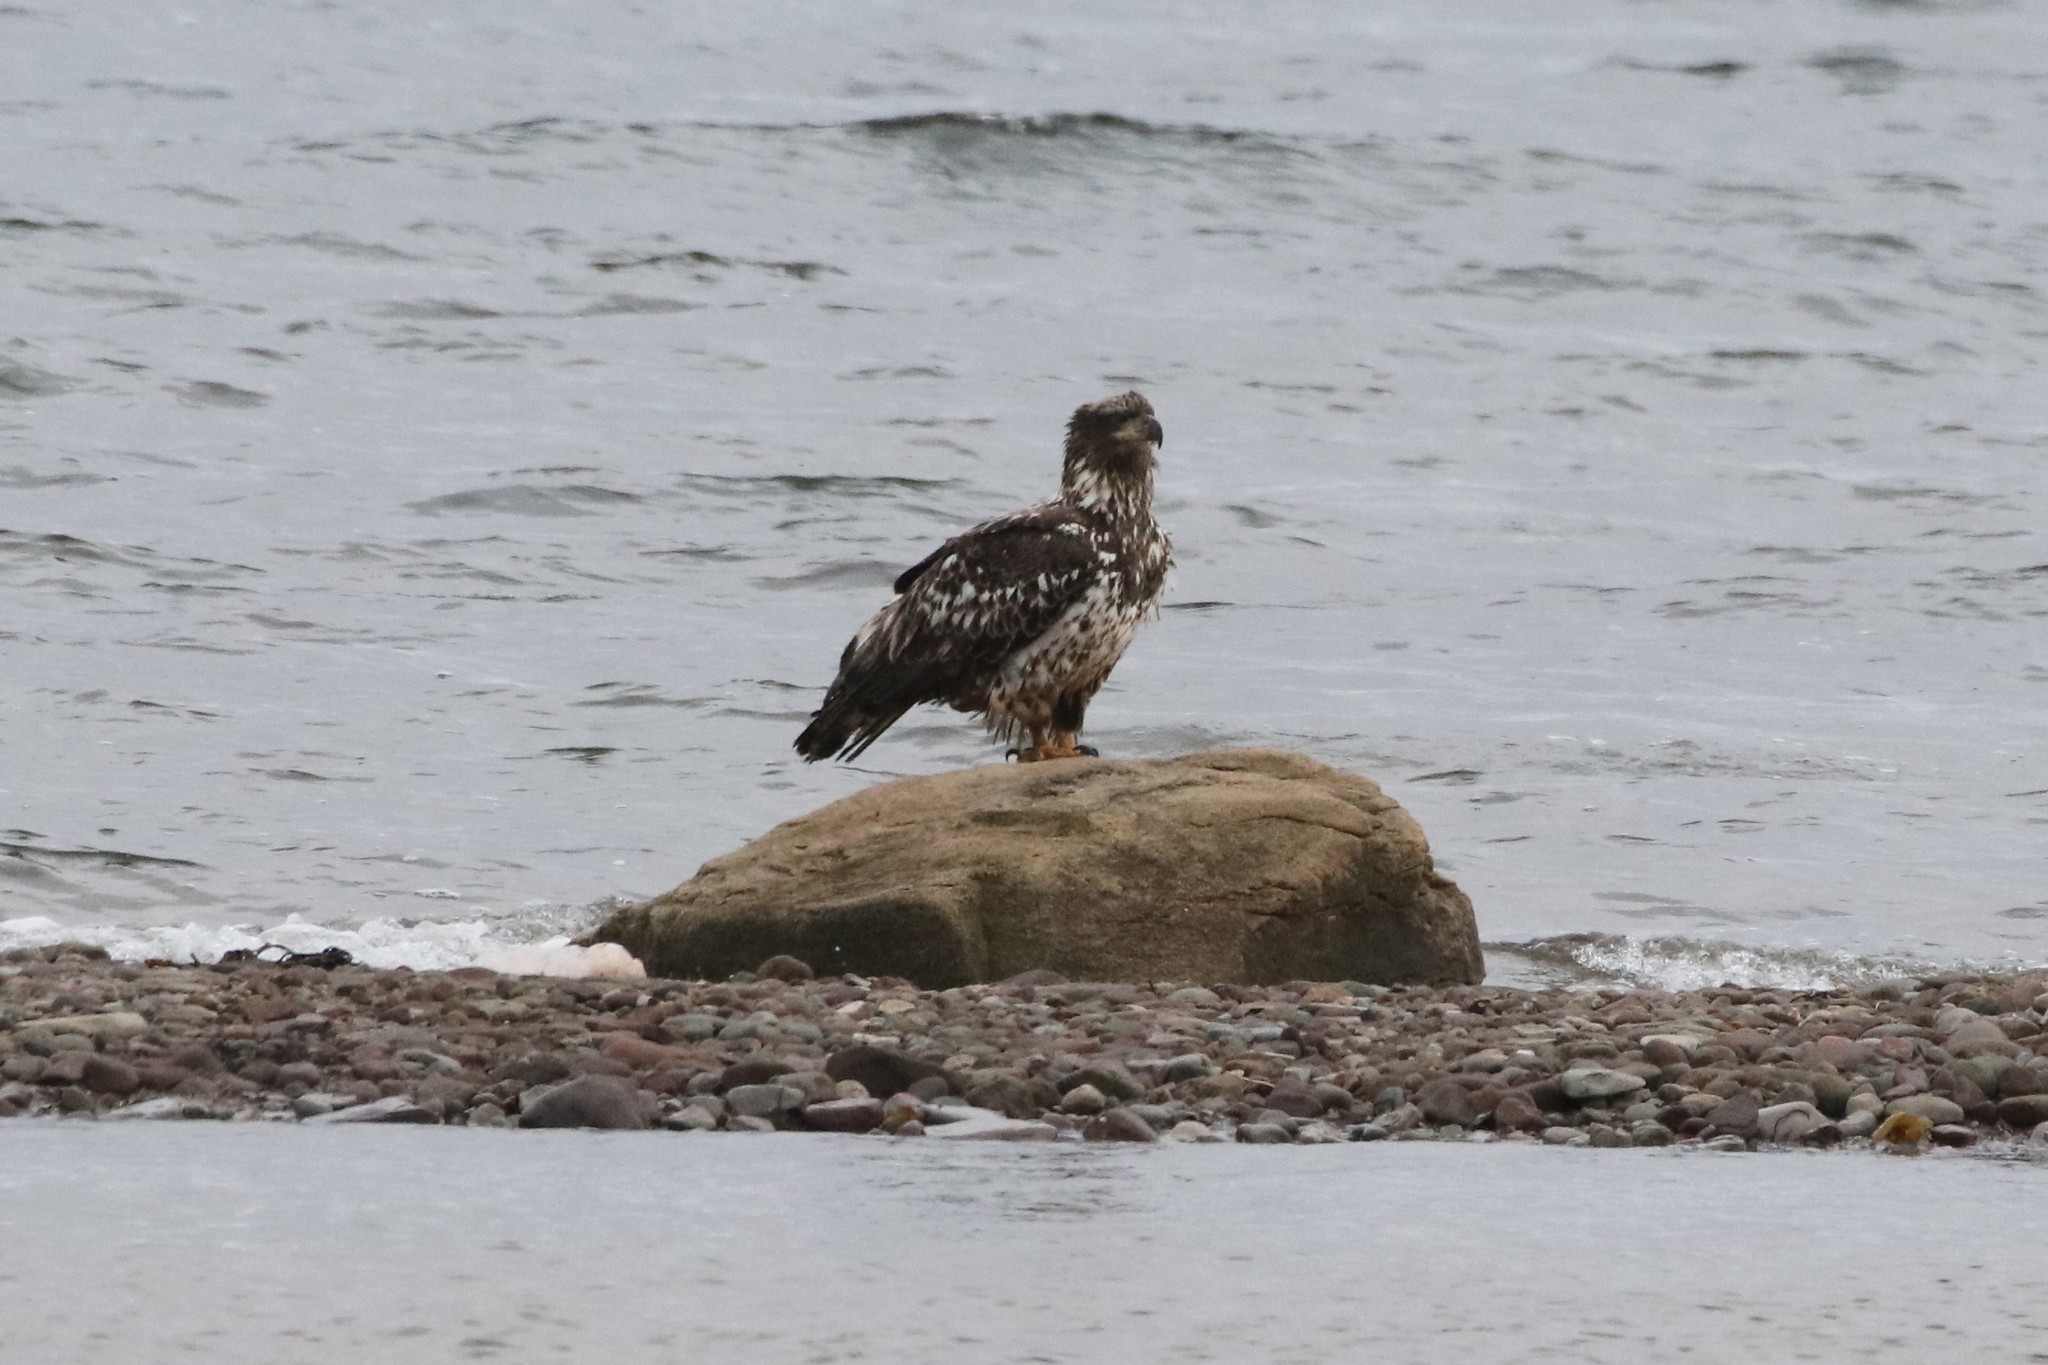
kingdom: Animalia
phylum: Chordata
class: Aves
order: Accipitriformes
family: Accipitridae
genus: Haliaeetus
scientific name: Haliaeetus leucocephalus
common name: Bald eagle
